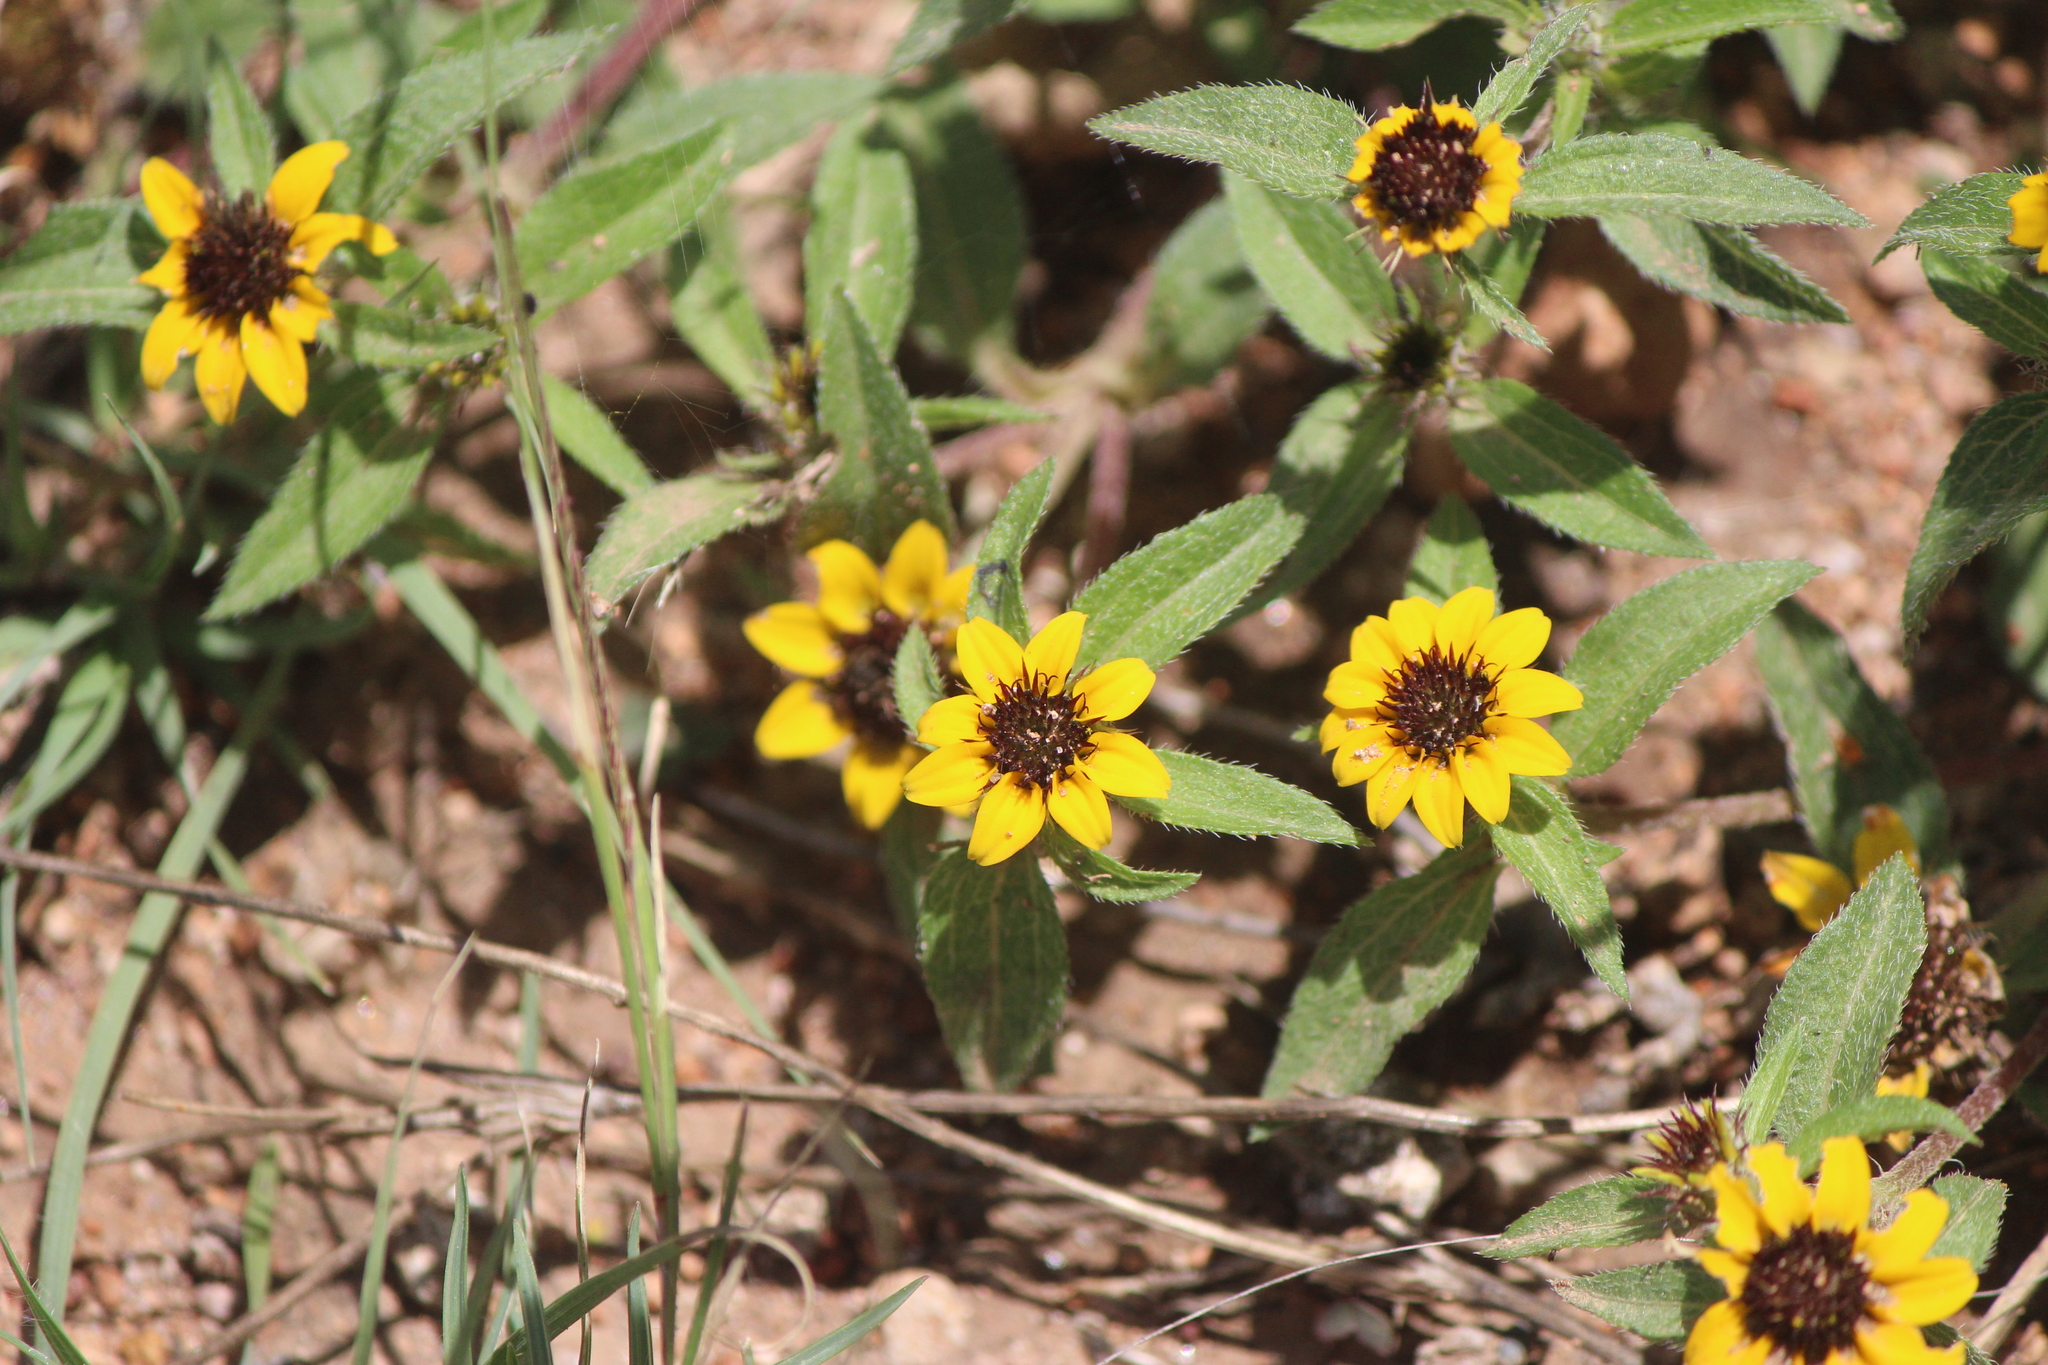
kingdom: Plantae
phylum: Tracheophyta
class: Magnoliopsida
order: Asterales
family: Asteraceae
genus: Sanvitalia
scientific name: Sanvitalia procumbens
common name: Mexican creeping zinnia
